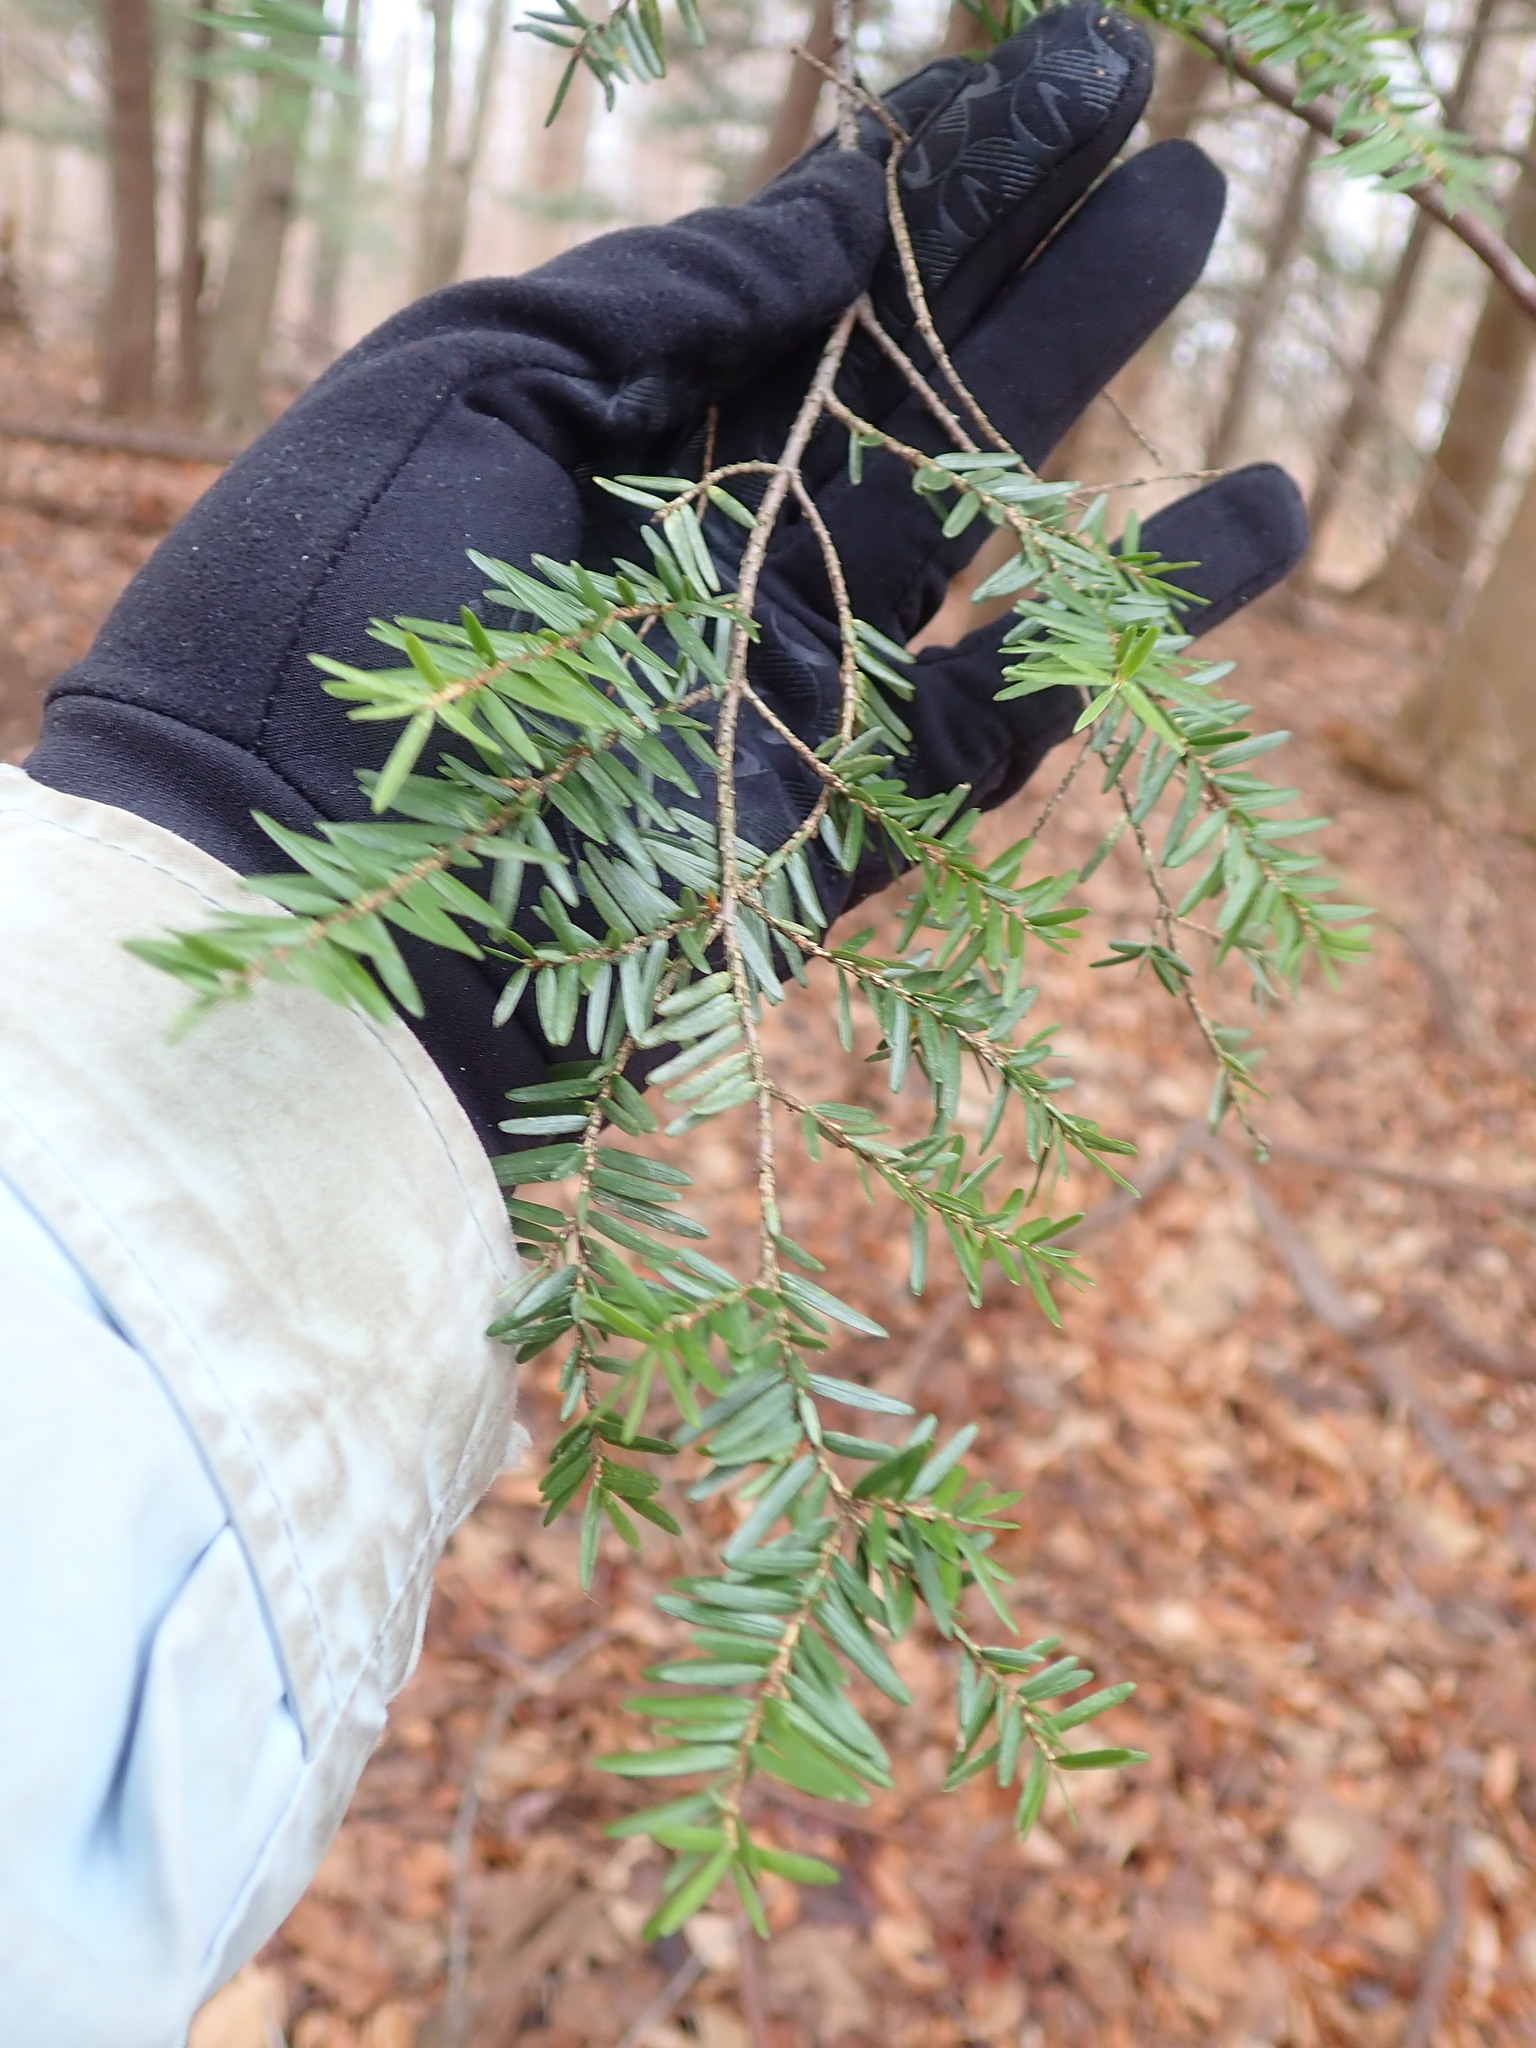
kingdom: Plantae
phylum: Tracheophyta
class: Pinopsida
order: Pinales
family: Pinaceae
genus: Tsuga
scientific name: Tsuga canadensis
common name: Eastern hemlock
